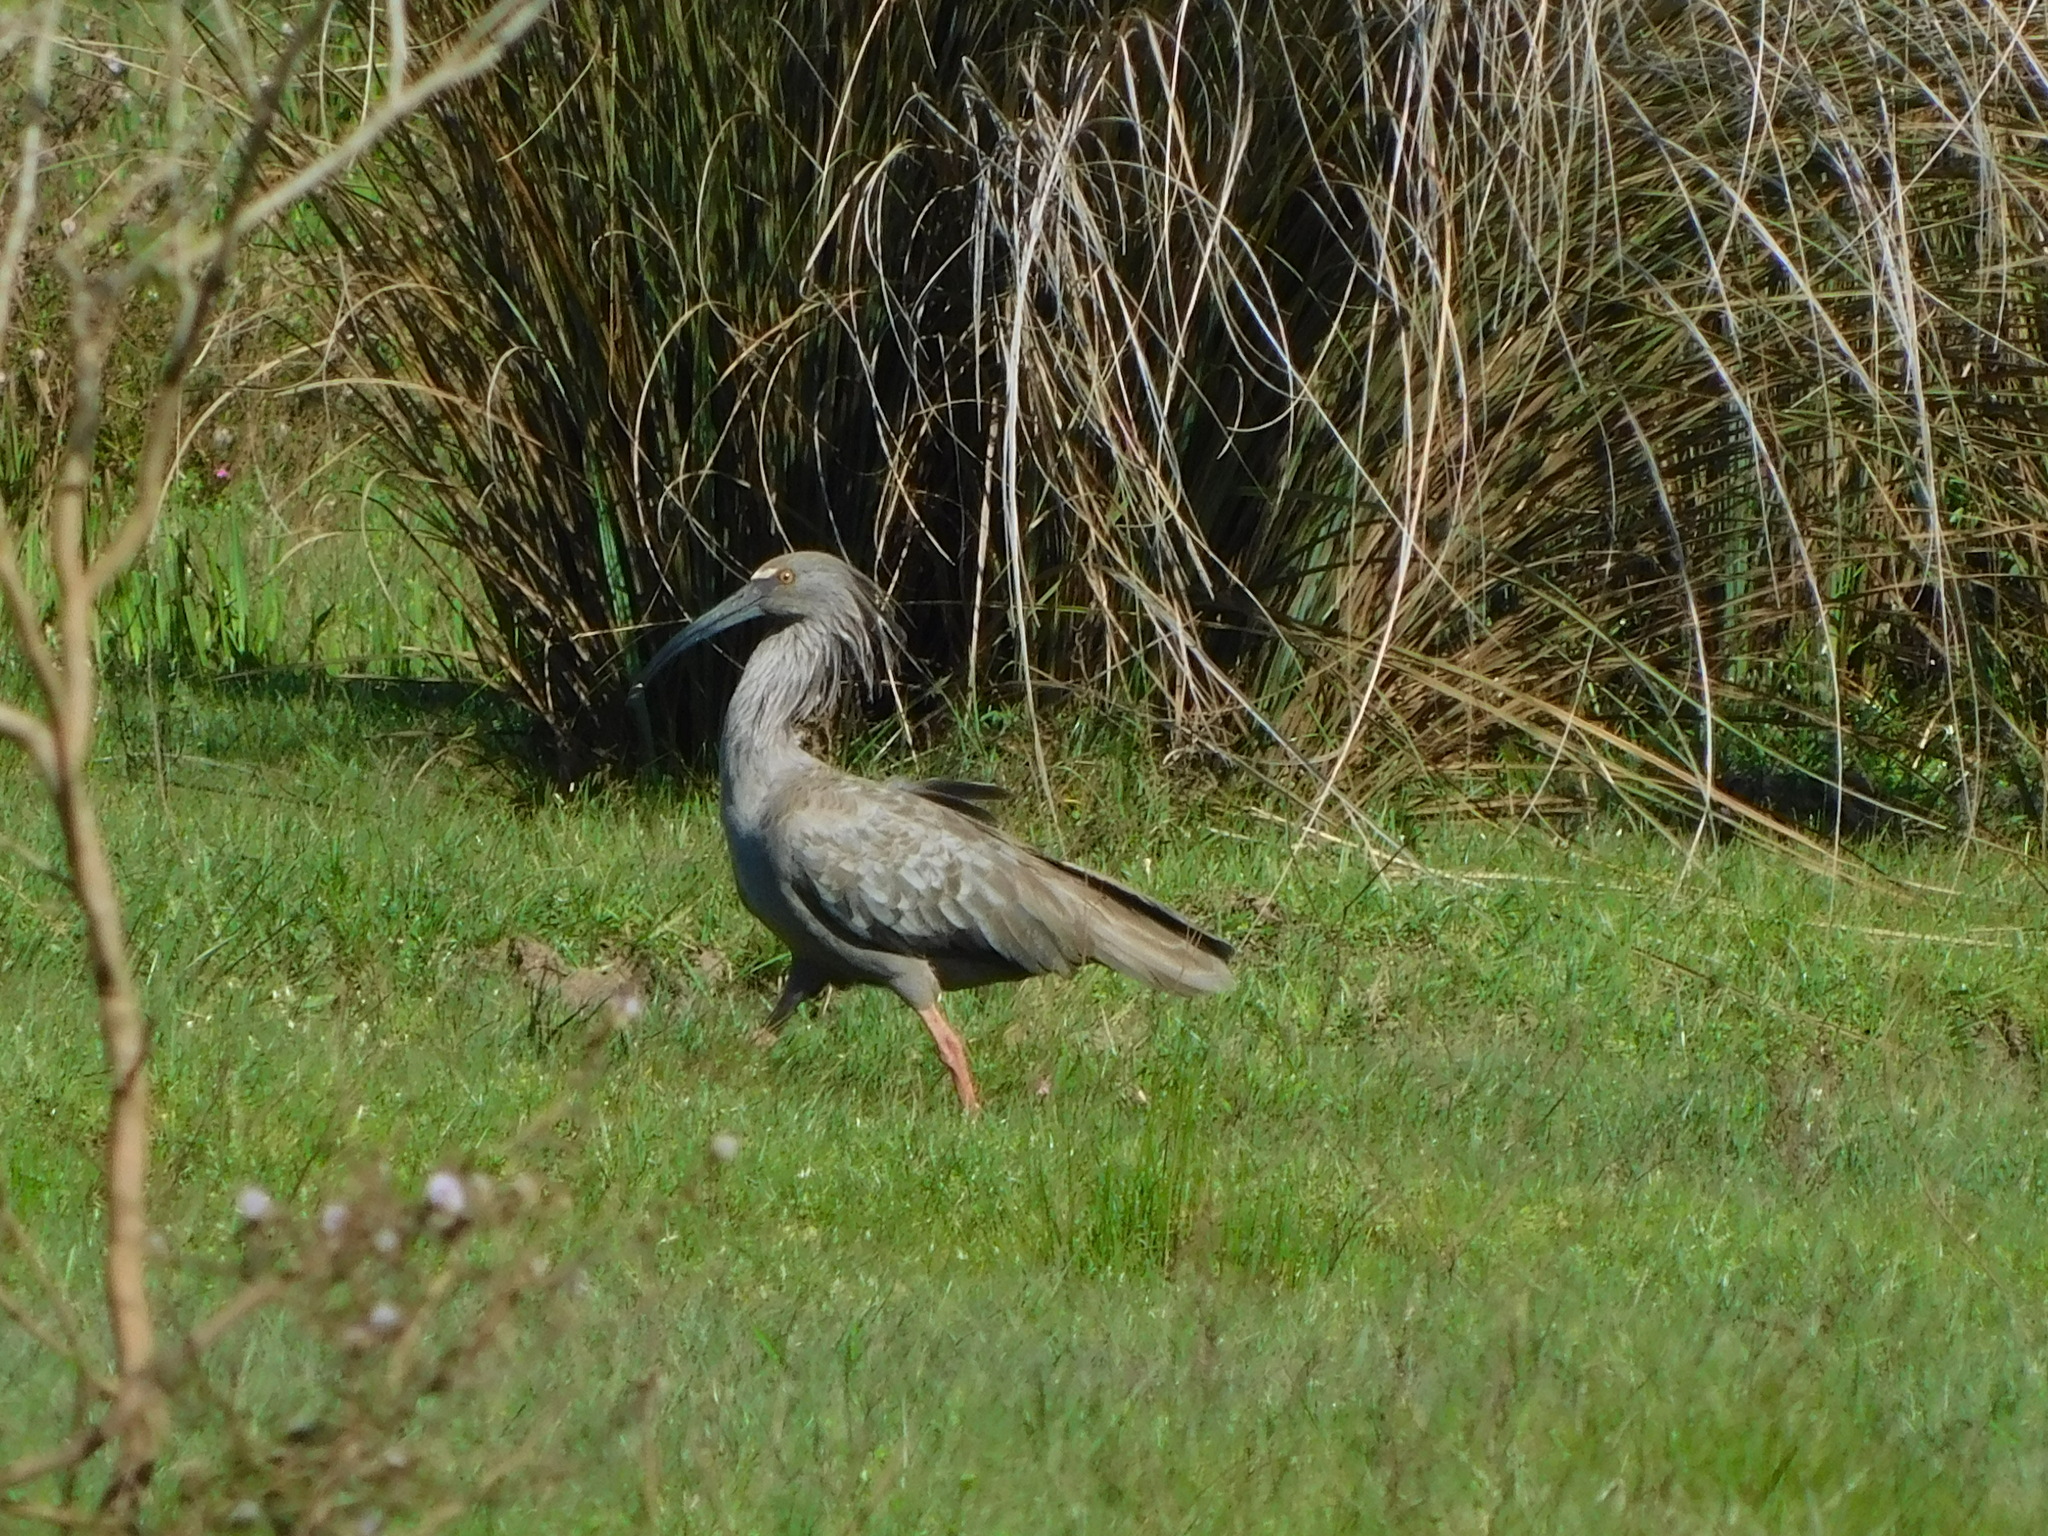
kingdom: Animalia
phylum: Chordata
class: Aves
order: Pelecaniformes
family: Threskiornithidae
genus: Theristicus
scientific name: Theristicus caerulescens
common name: Plumbeous ibis
